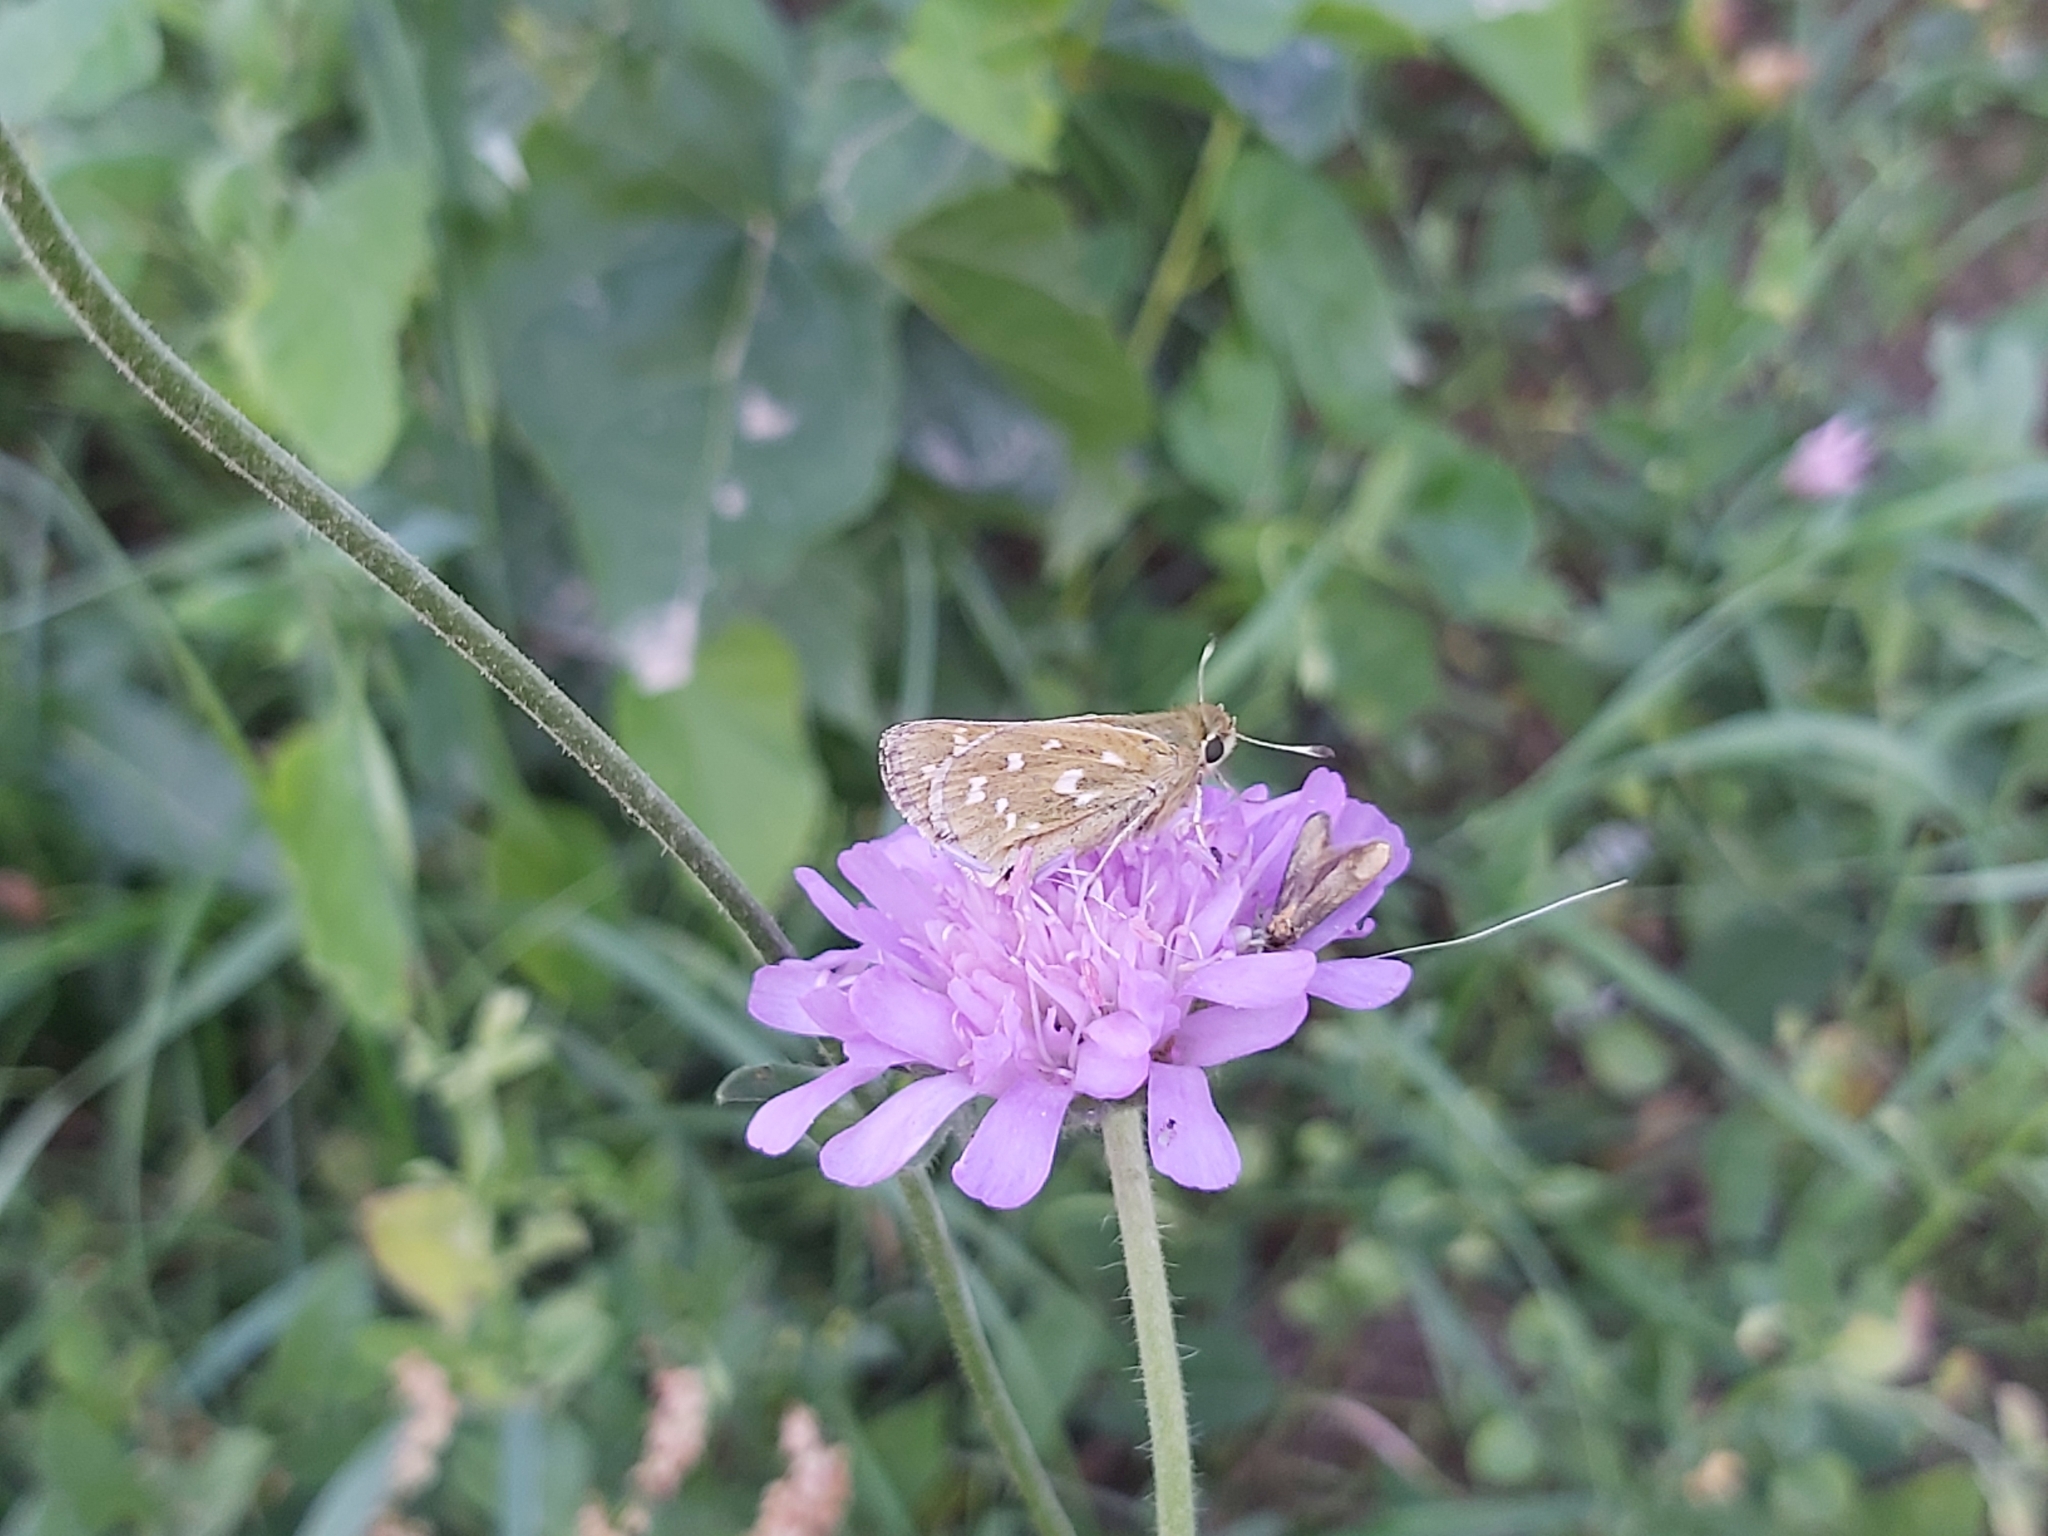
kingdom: Animalia
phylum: Arthropoda
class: Insecta
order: Lepidoptera
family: Hesperiidae
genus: Hesperia
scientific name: Hesperia comma
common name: Common branded skipper
